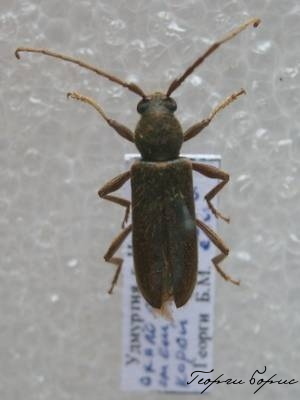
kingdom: Animalia
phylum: Arthropoda
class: Insecta
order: Coleoptera
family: Cerambycidae
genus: Trichoferus
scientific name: Trichoferus campestris
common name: Velvet long horned beetle
